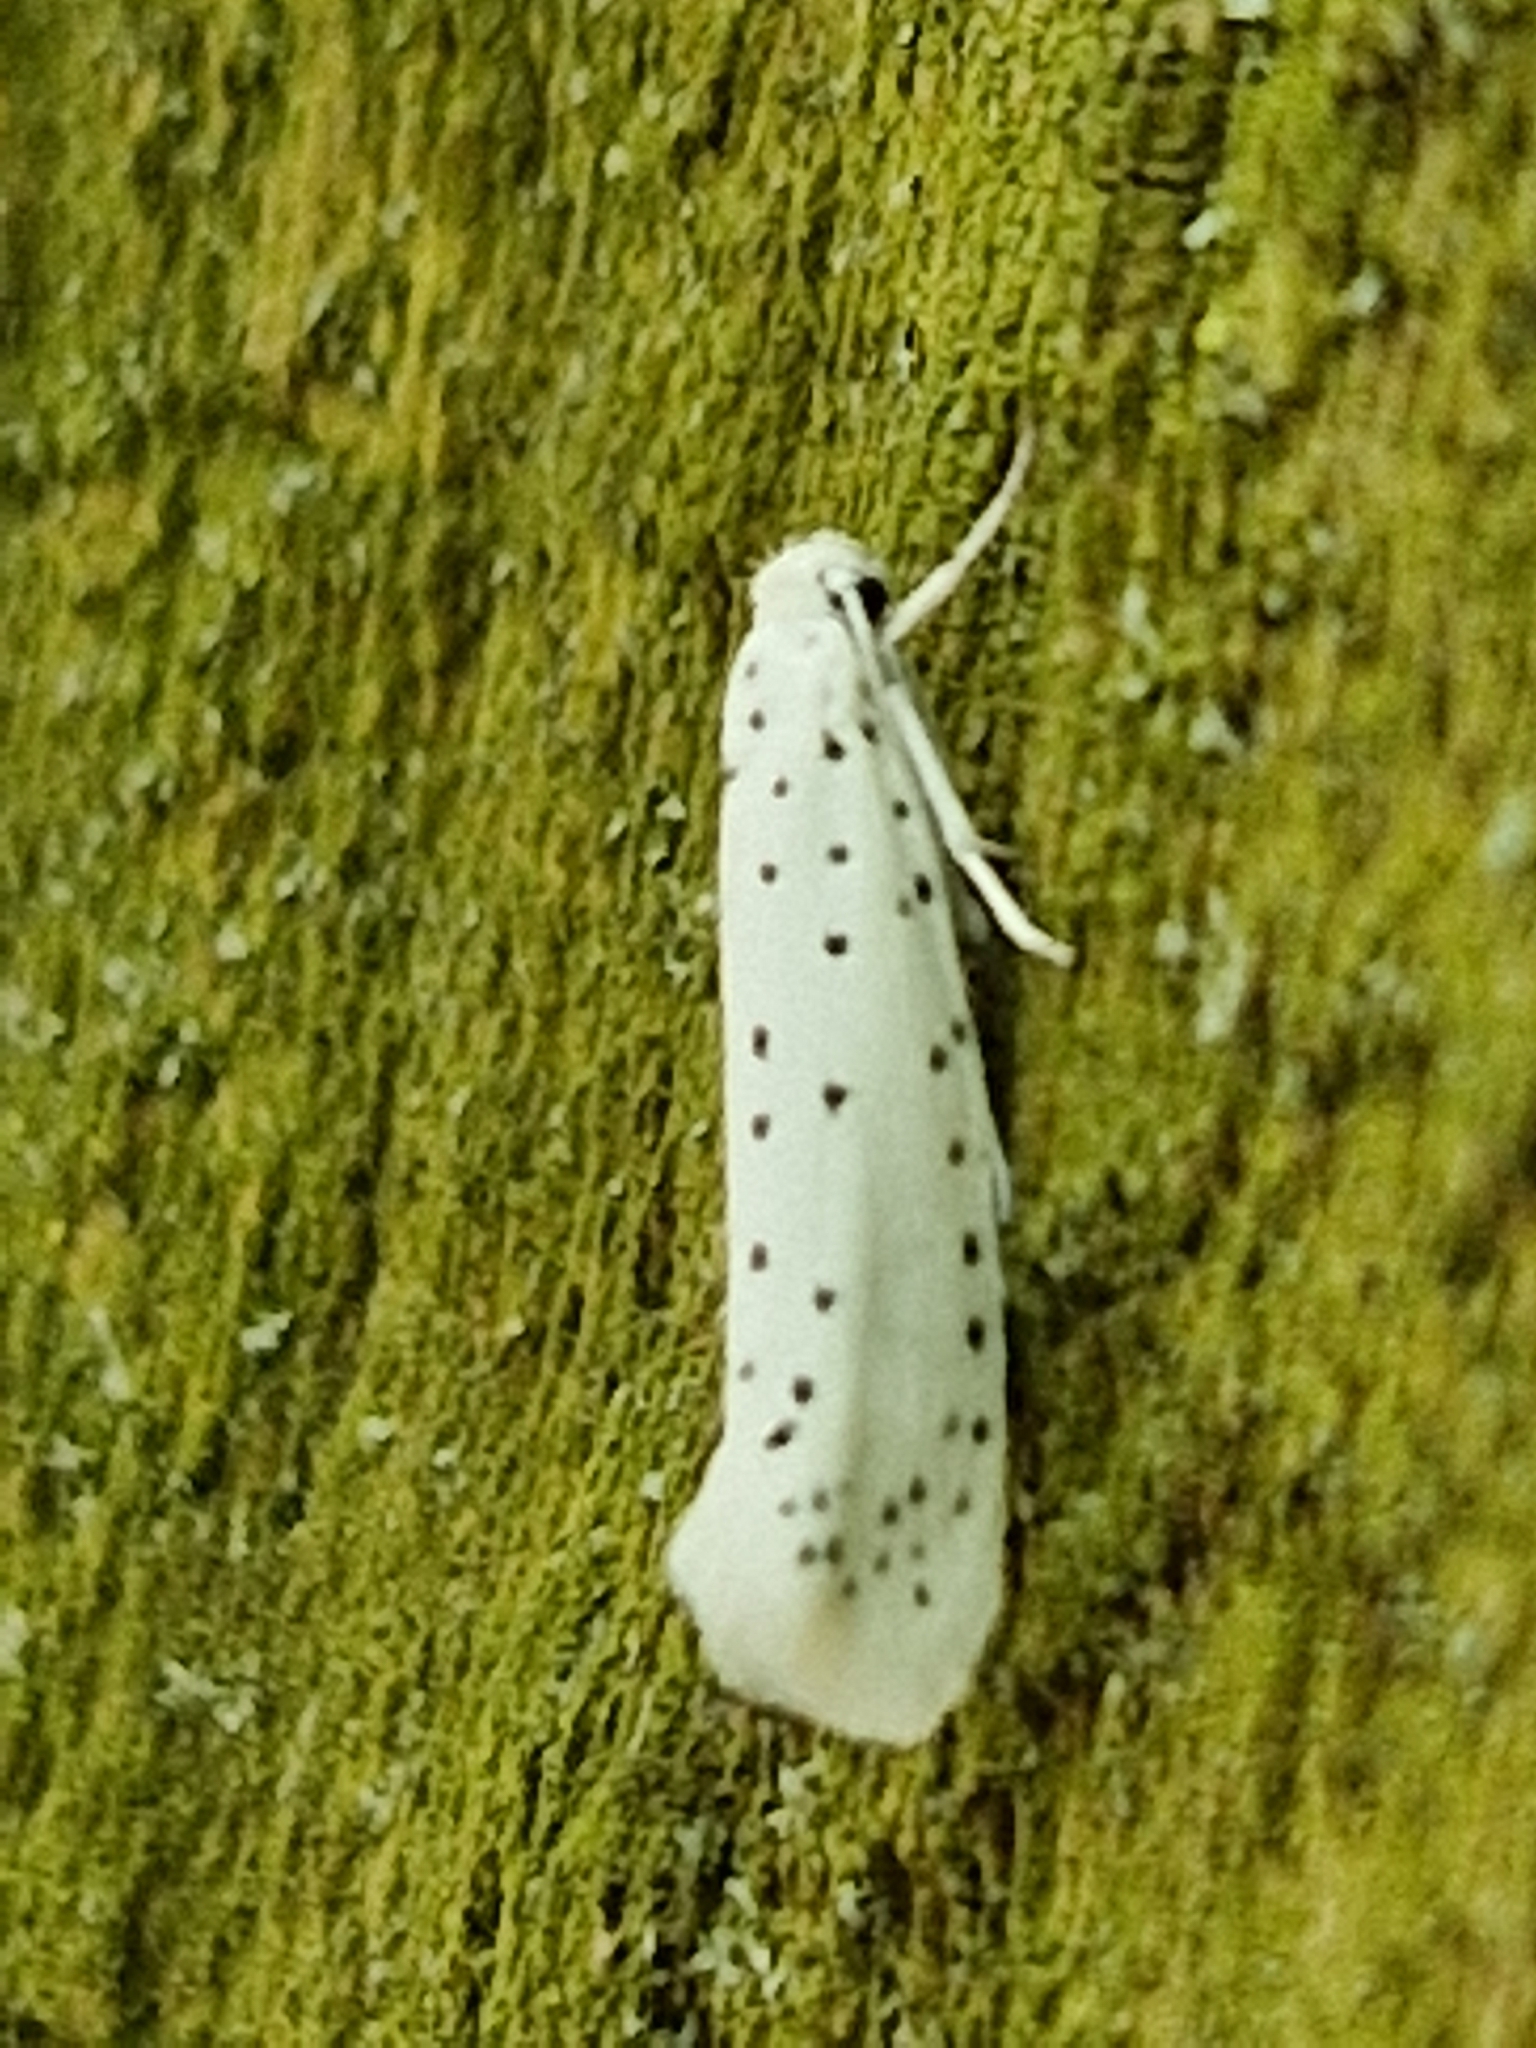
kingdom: Animalia
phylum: Arthropoda
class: Insecta
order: Lepidoptera
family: Yponomeutidae
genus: Yponomeuta
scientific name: Yponomeuta
